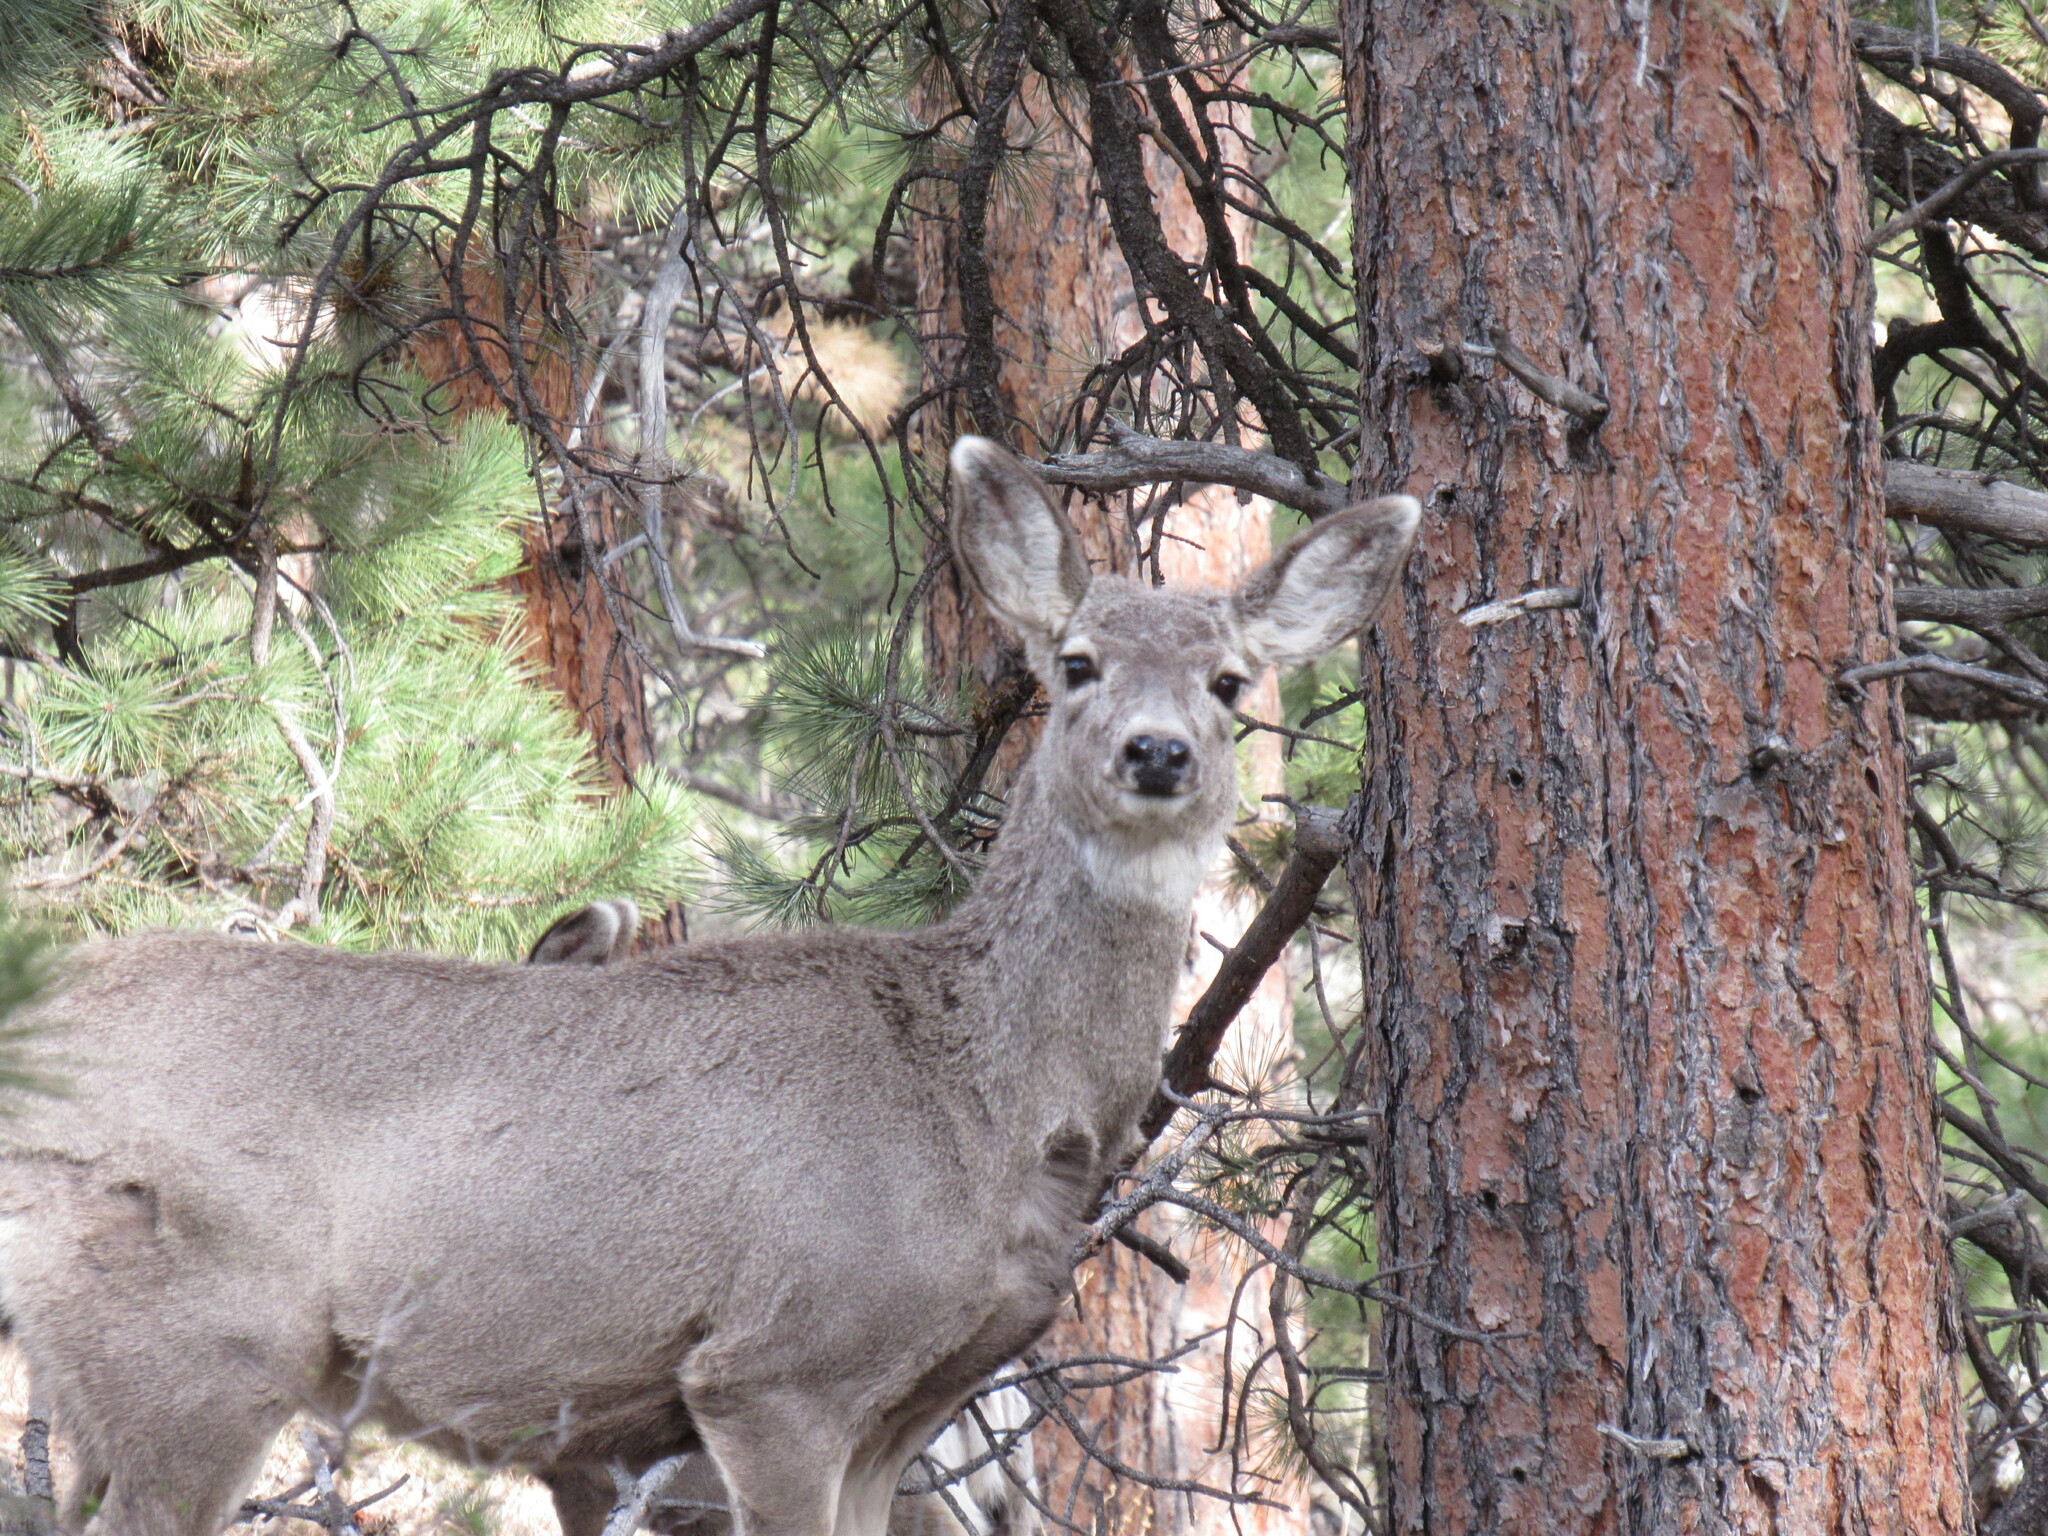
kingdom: Animalia
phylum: Chordata
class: Mammalia
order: Artiodactyla
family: Cervidae
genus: Odocoileus
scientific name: Odocoileus hemionus
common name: Mule deer
